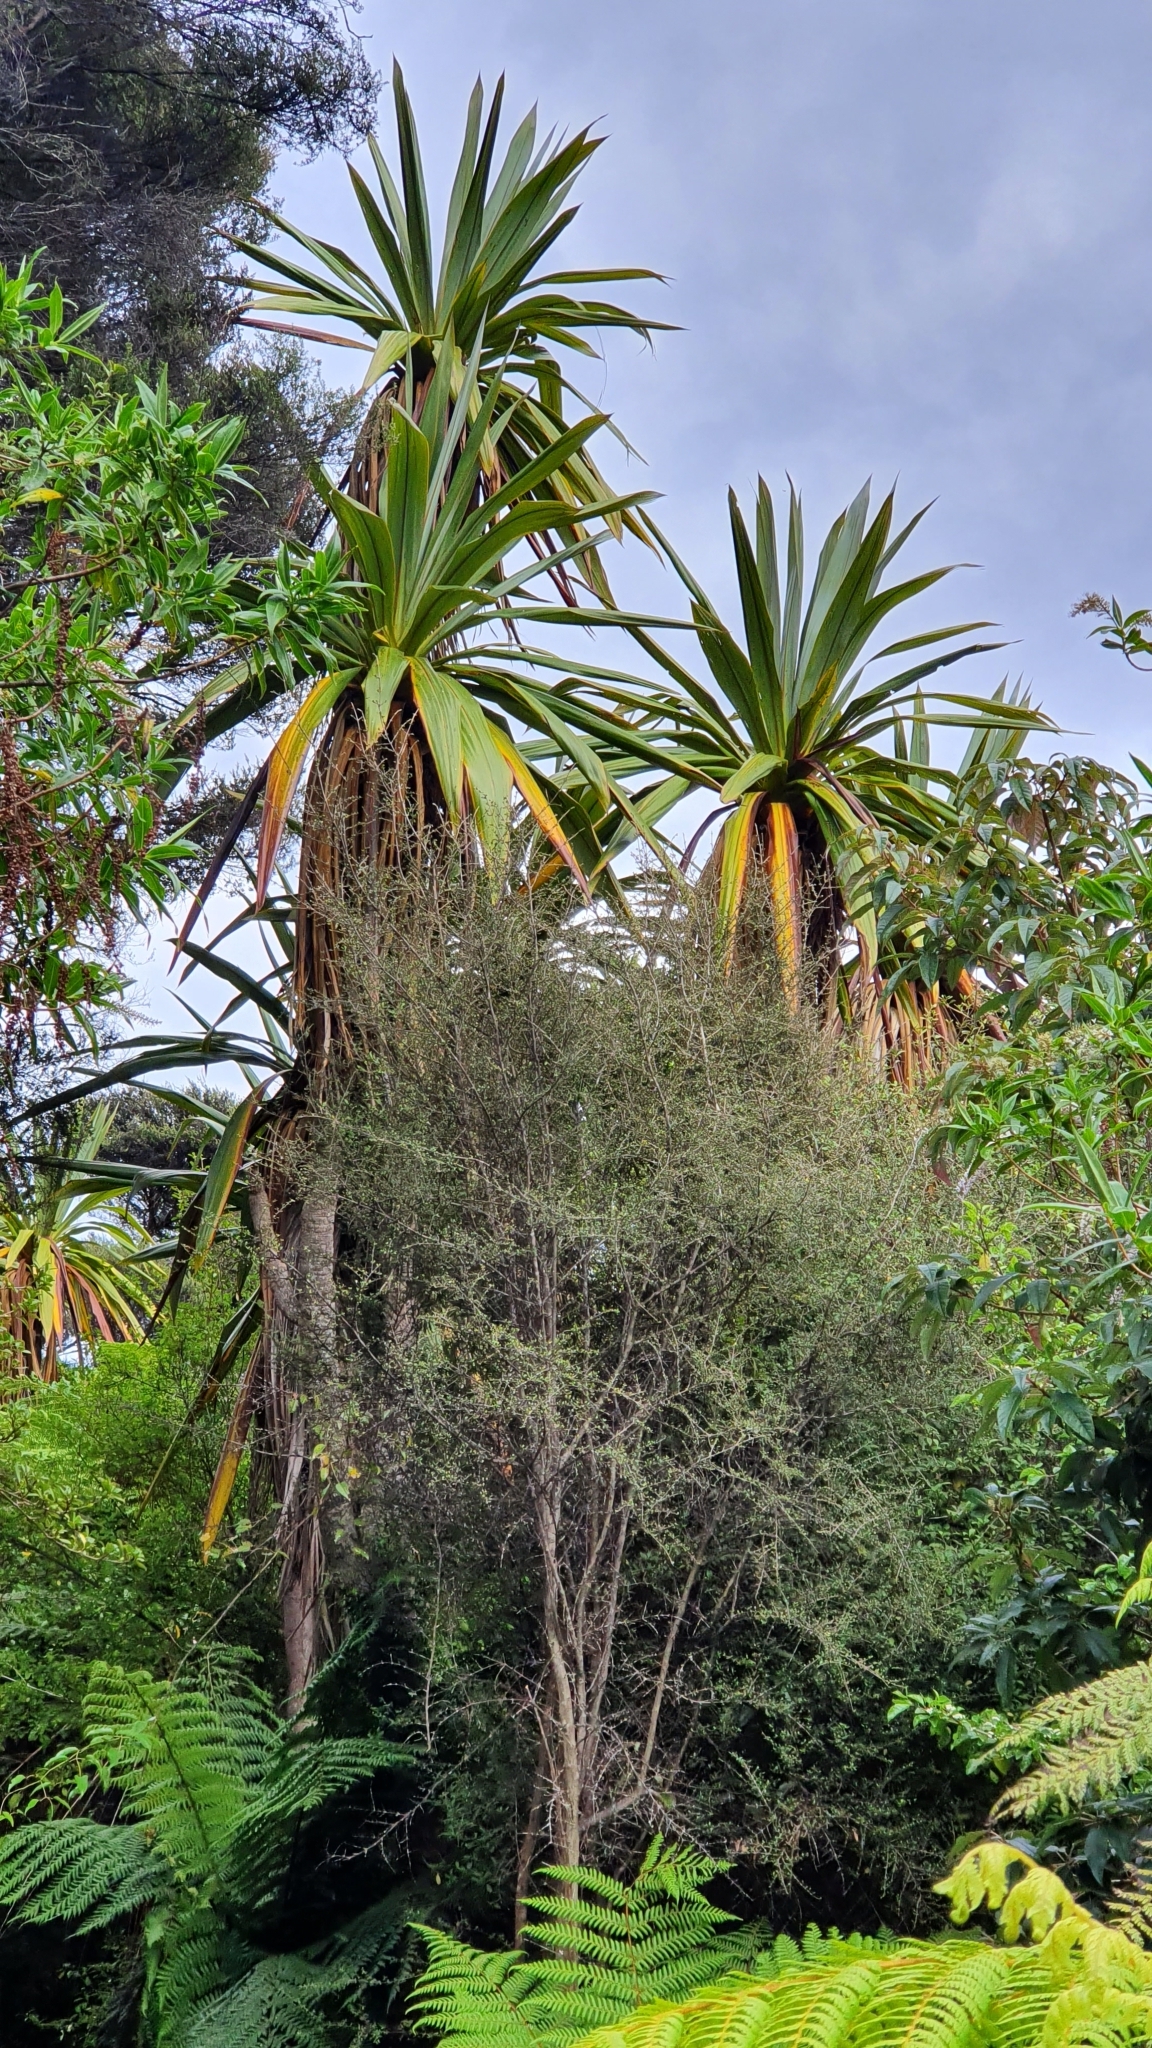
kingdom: Plantae
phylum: Tracheophyta
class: Liliopsida
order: Asparagales
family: Asparagaceae
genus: Cordyline
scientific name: Cordyline indivisa
